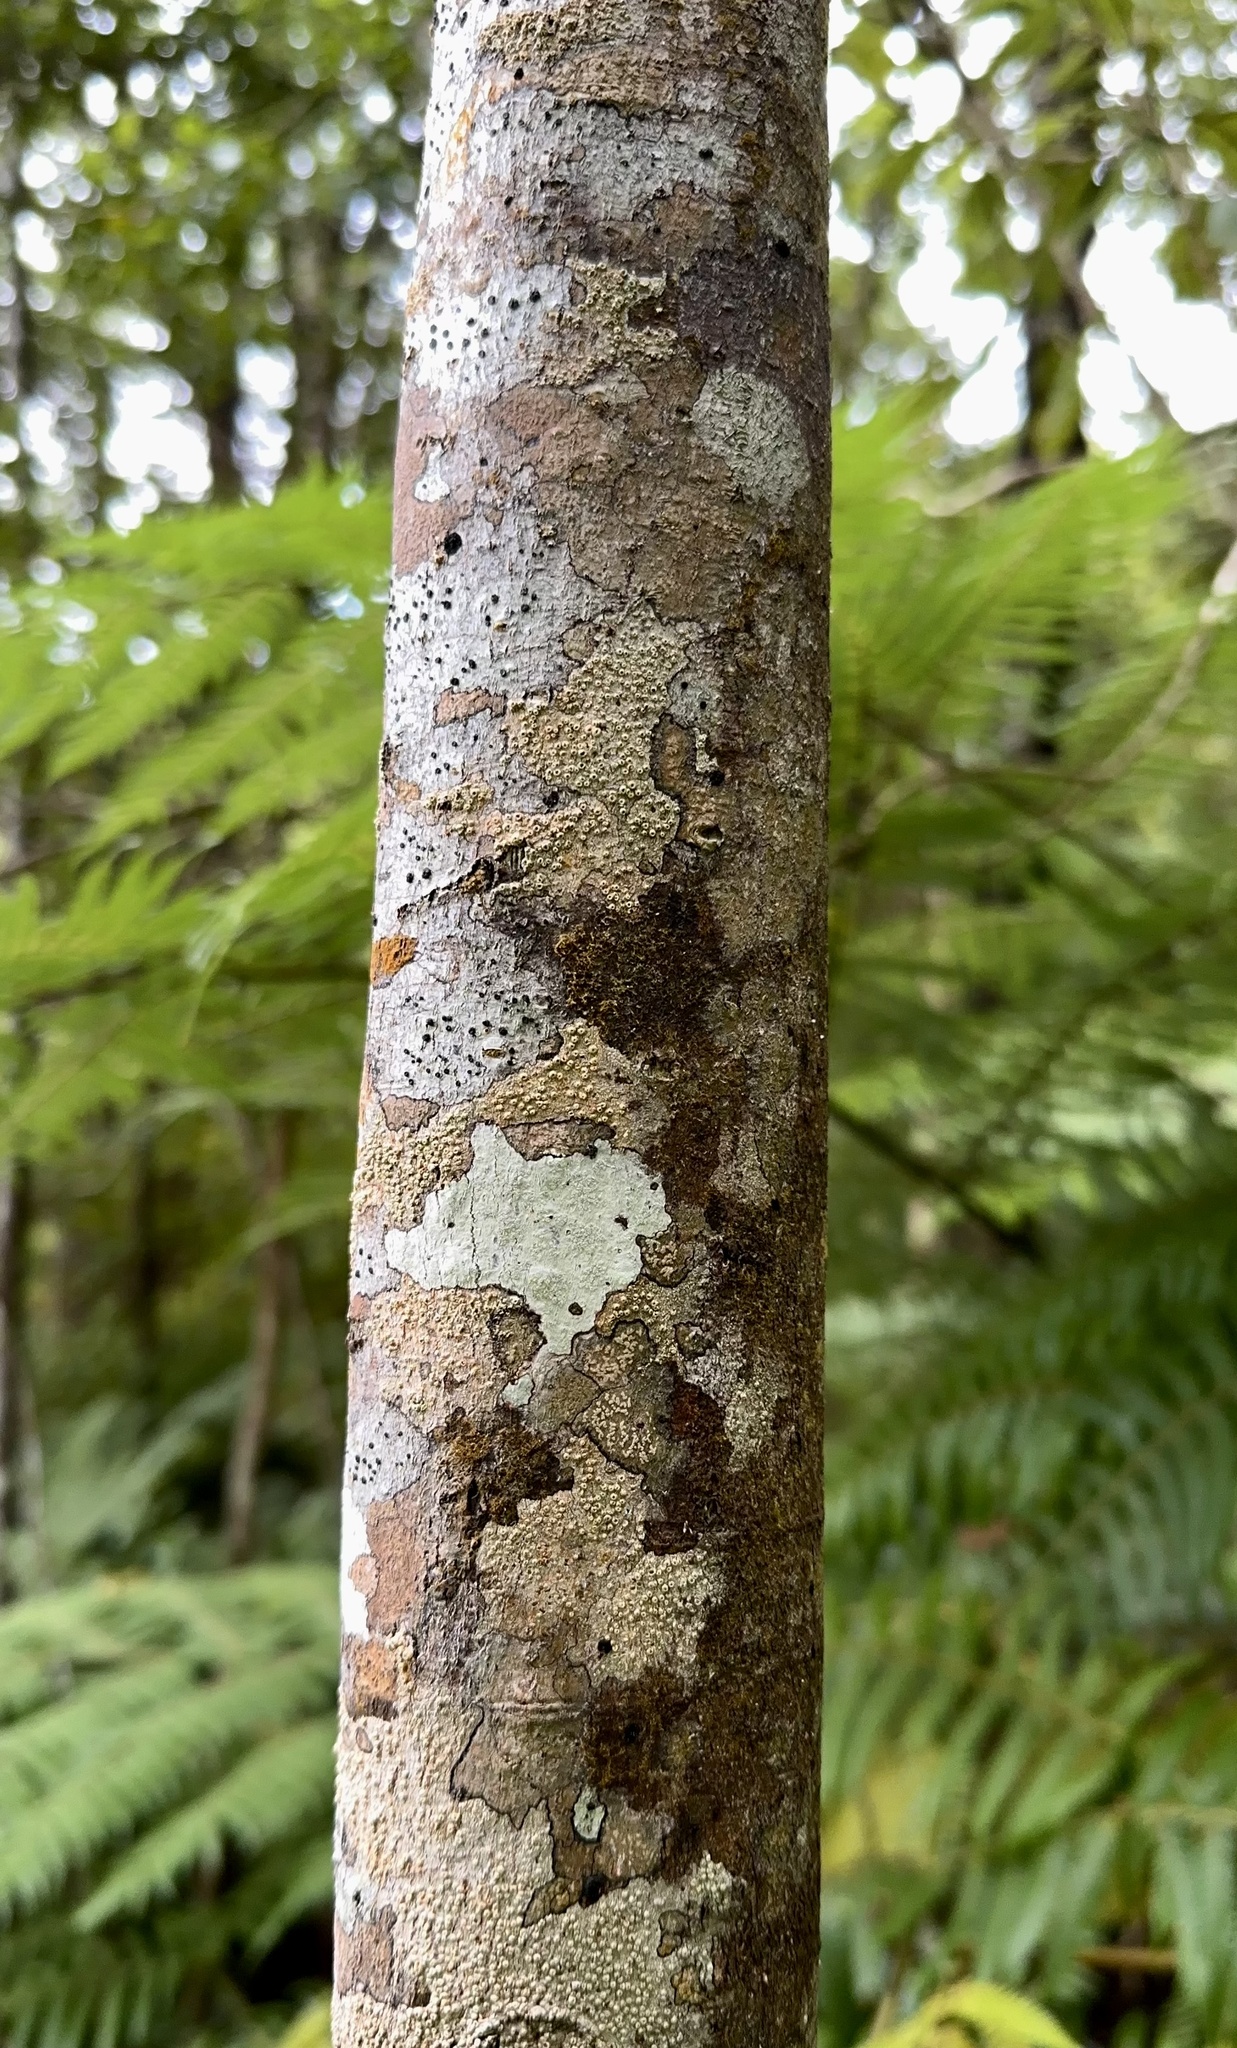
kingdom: Plantae
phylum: Tracheophyta
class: Magnoliopsida
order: Oxalidales
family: Elaeocarpaceae
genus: Elaeocarpus
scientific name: Elaeocarpus dentatus
